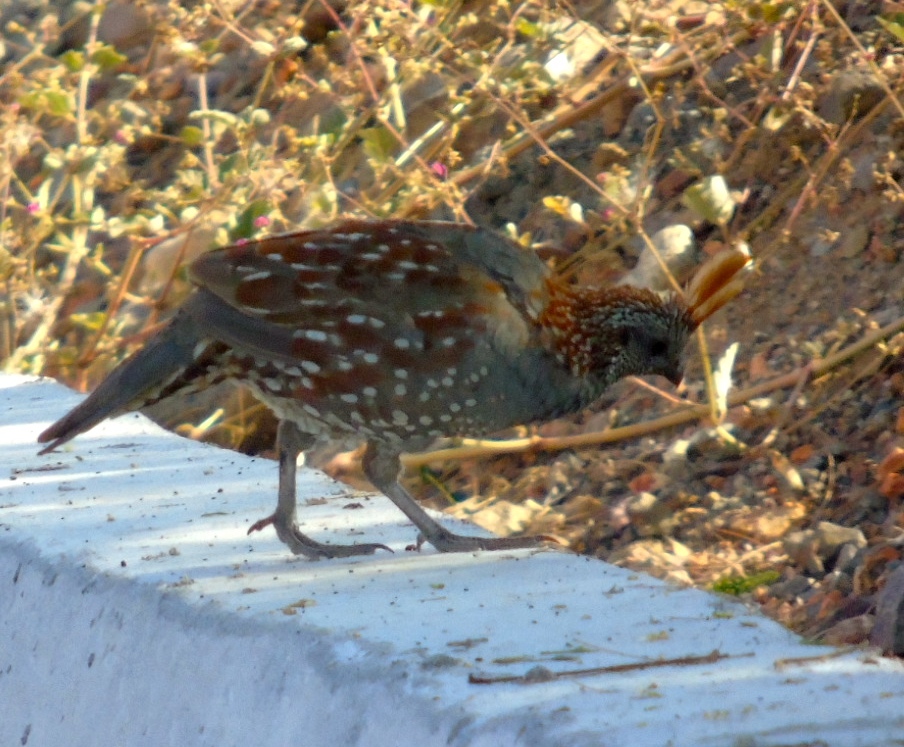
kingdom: Animalia
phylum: Chordata
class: Aves
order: Galliformes
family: Odontophoridae
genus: Callipepla
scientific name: Callipepla douglasii
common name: Elegant quail
